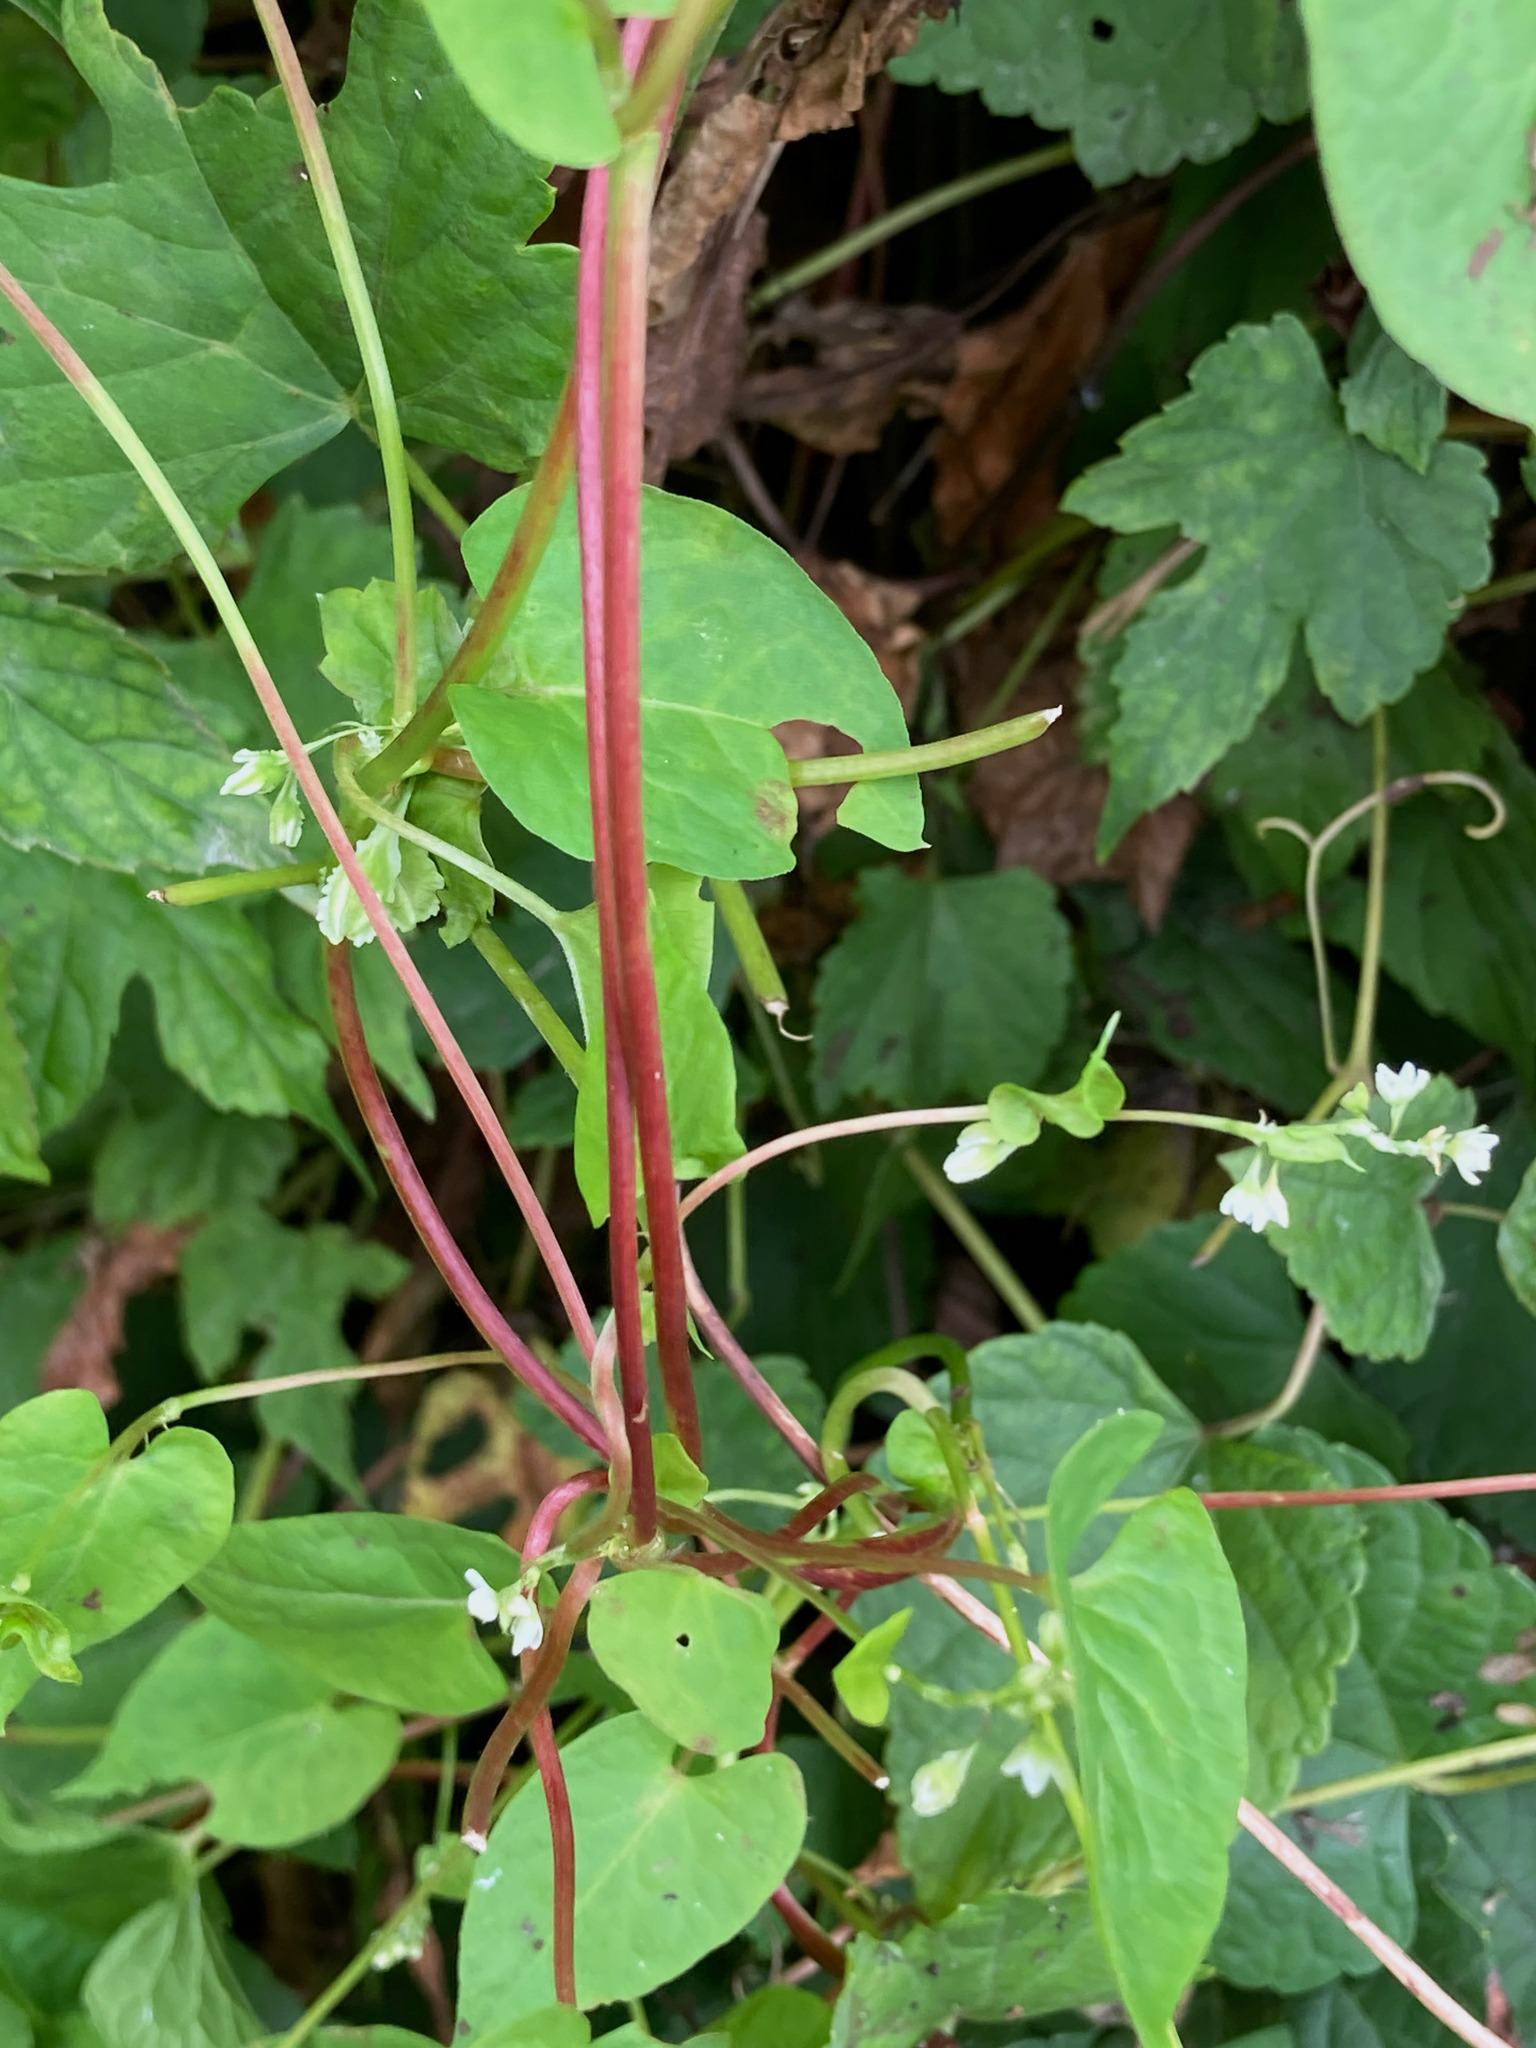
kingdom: Plantae
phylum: Tracheophyta
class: Magnoliopsida
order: Caryophyllales
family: Polygonaceae
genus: Fallopia
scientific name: Fallopia scandens
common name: Climbing false buckwheat
